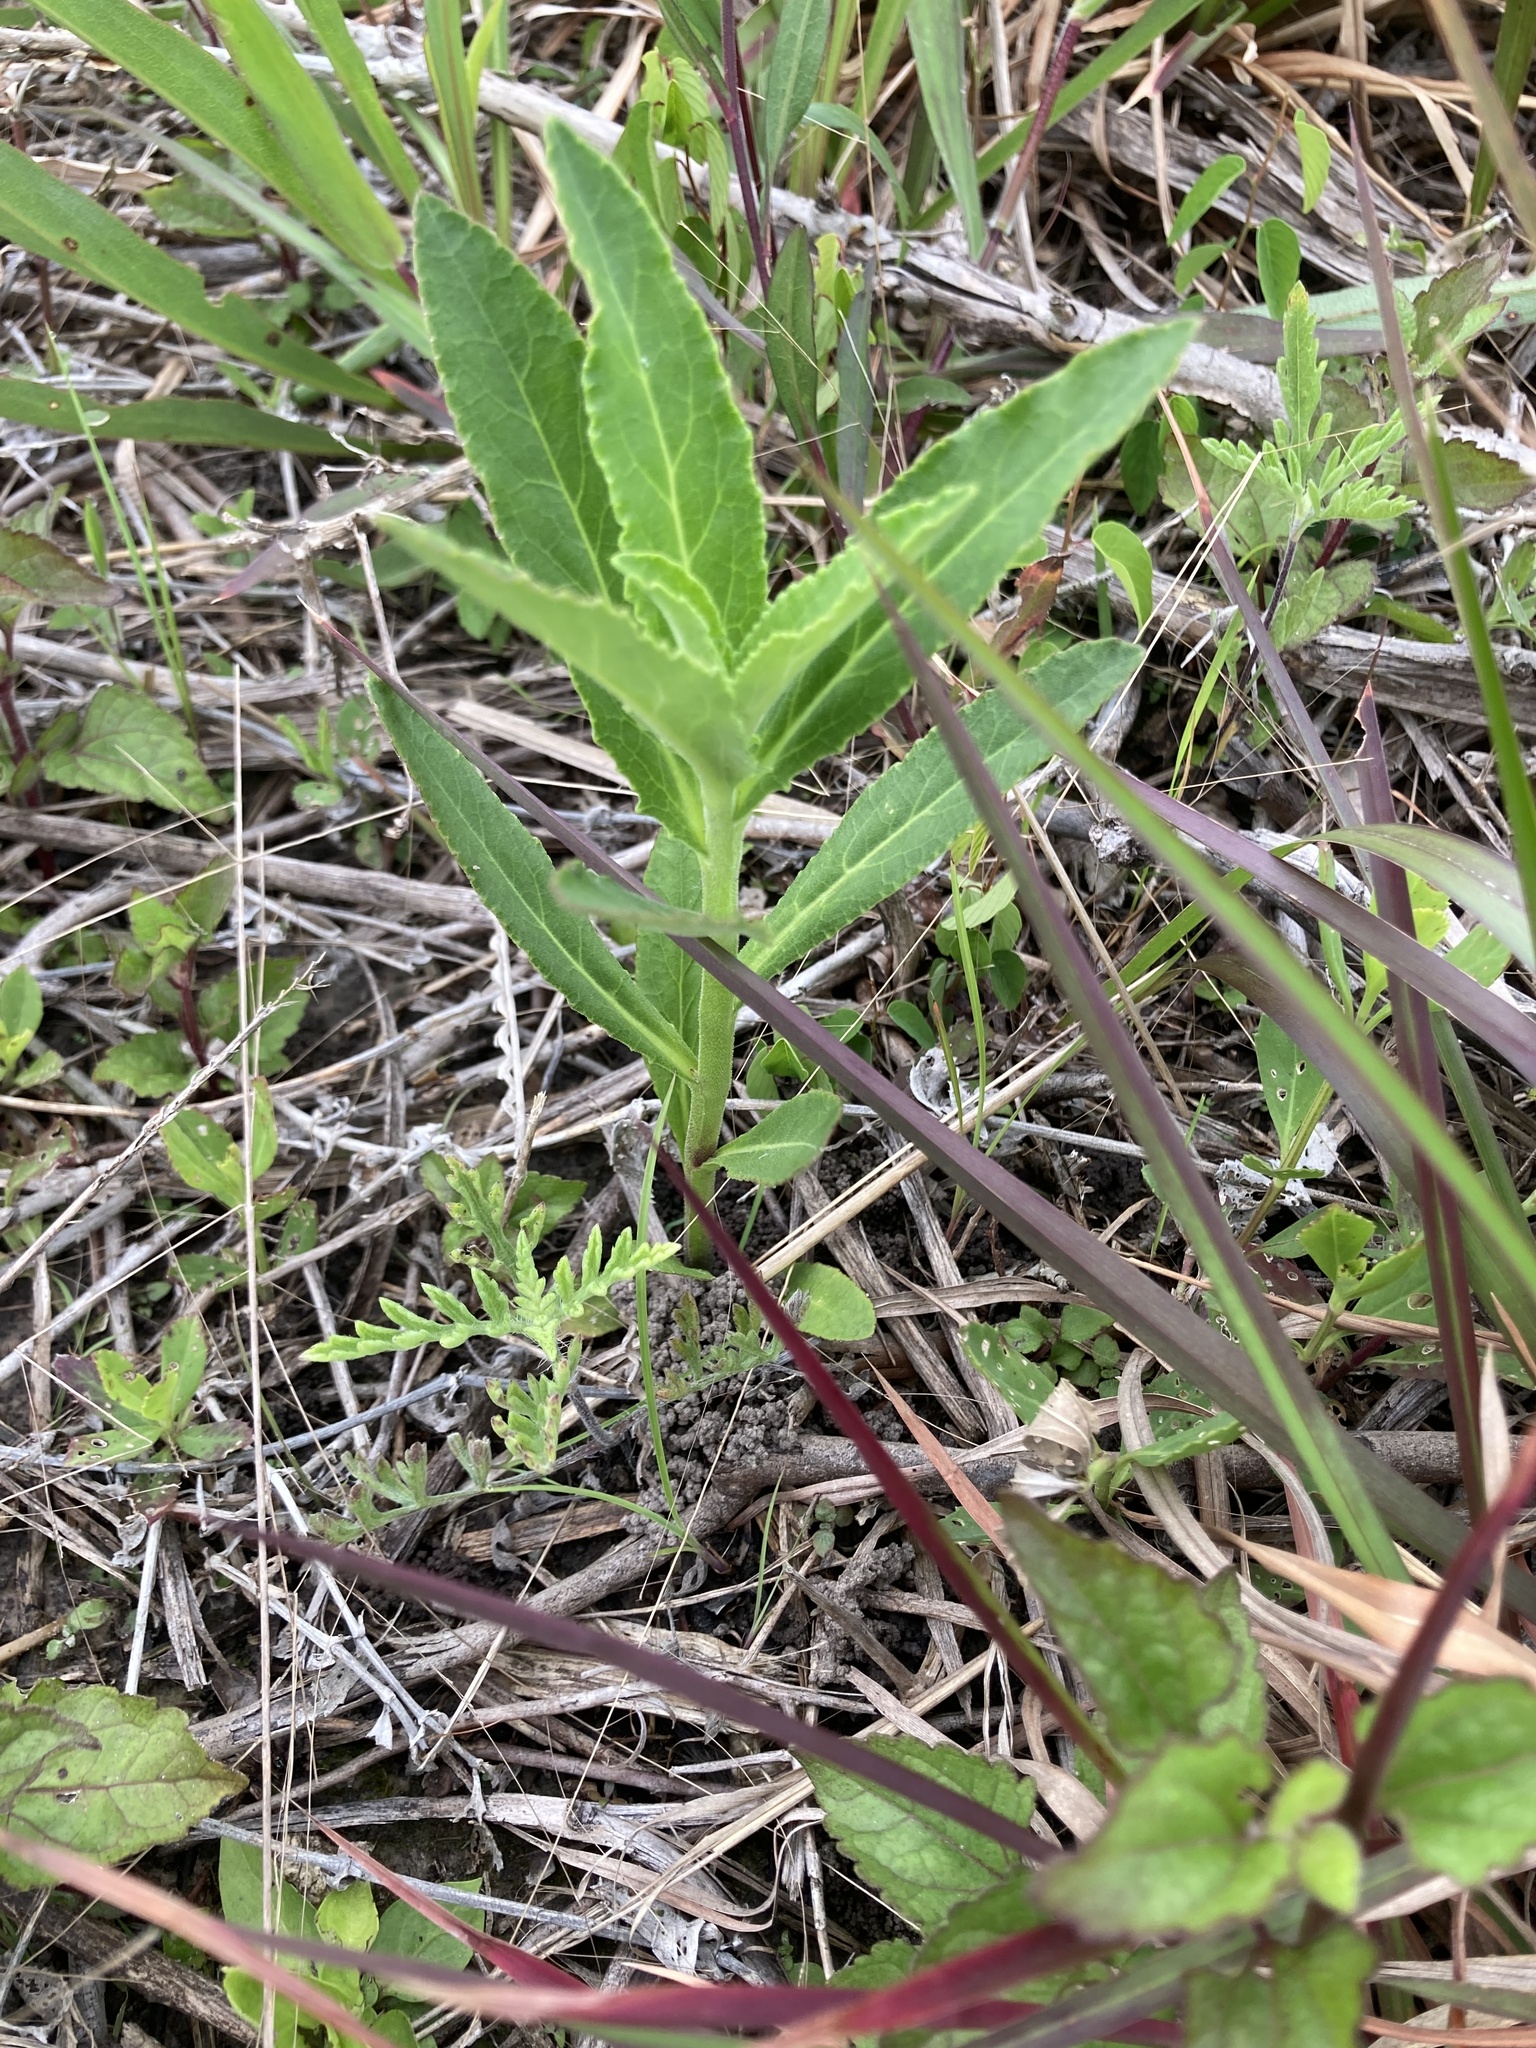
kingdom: Plantae
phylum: Tracheophyta
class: Magnoliopsida
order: Lamiales
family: Lamiaceae
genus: Physostegia
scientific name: Physostegia virginiana
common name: Obedient-plant
